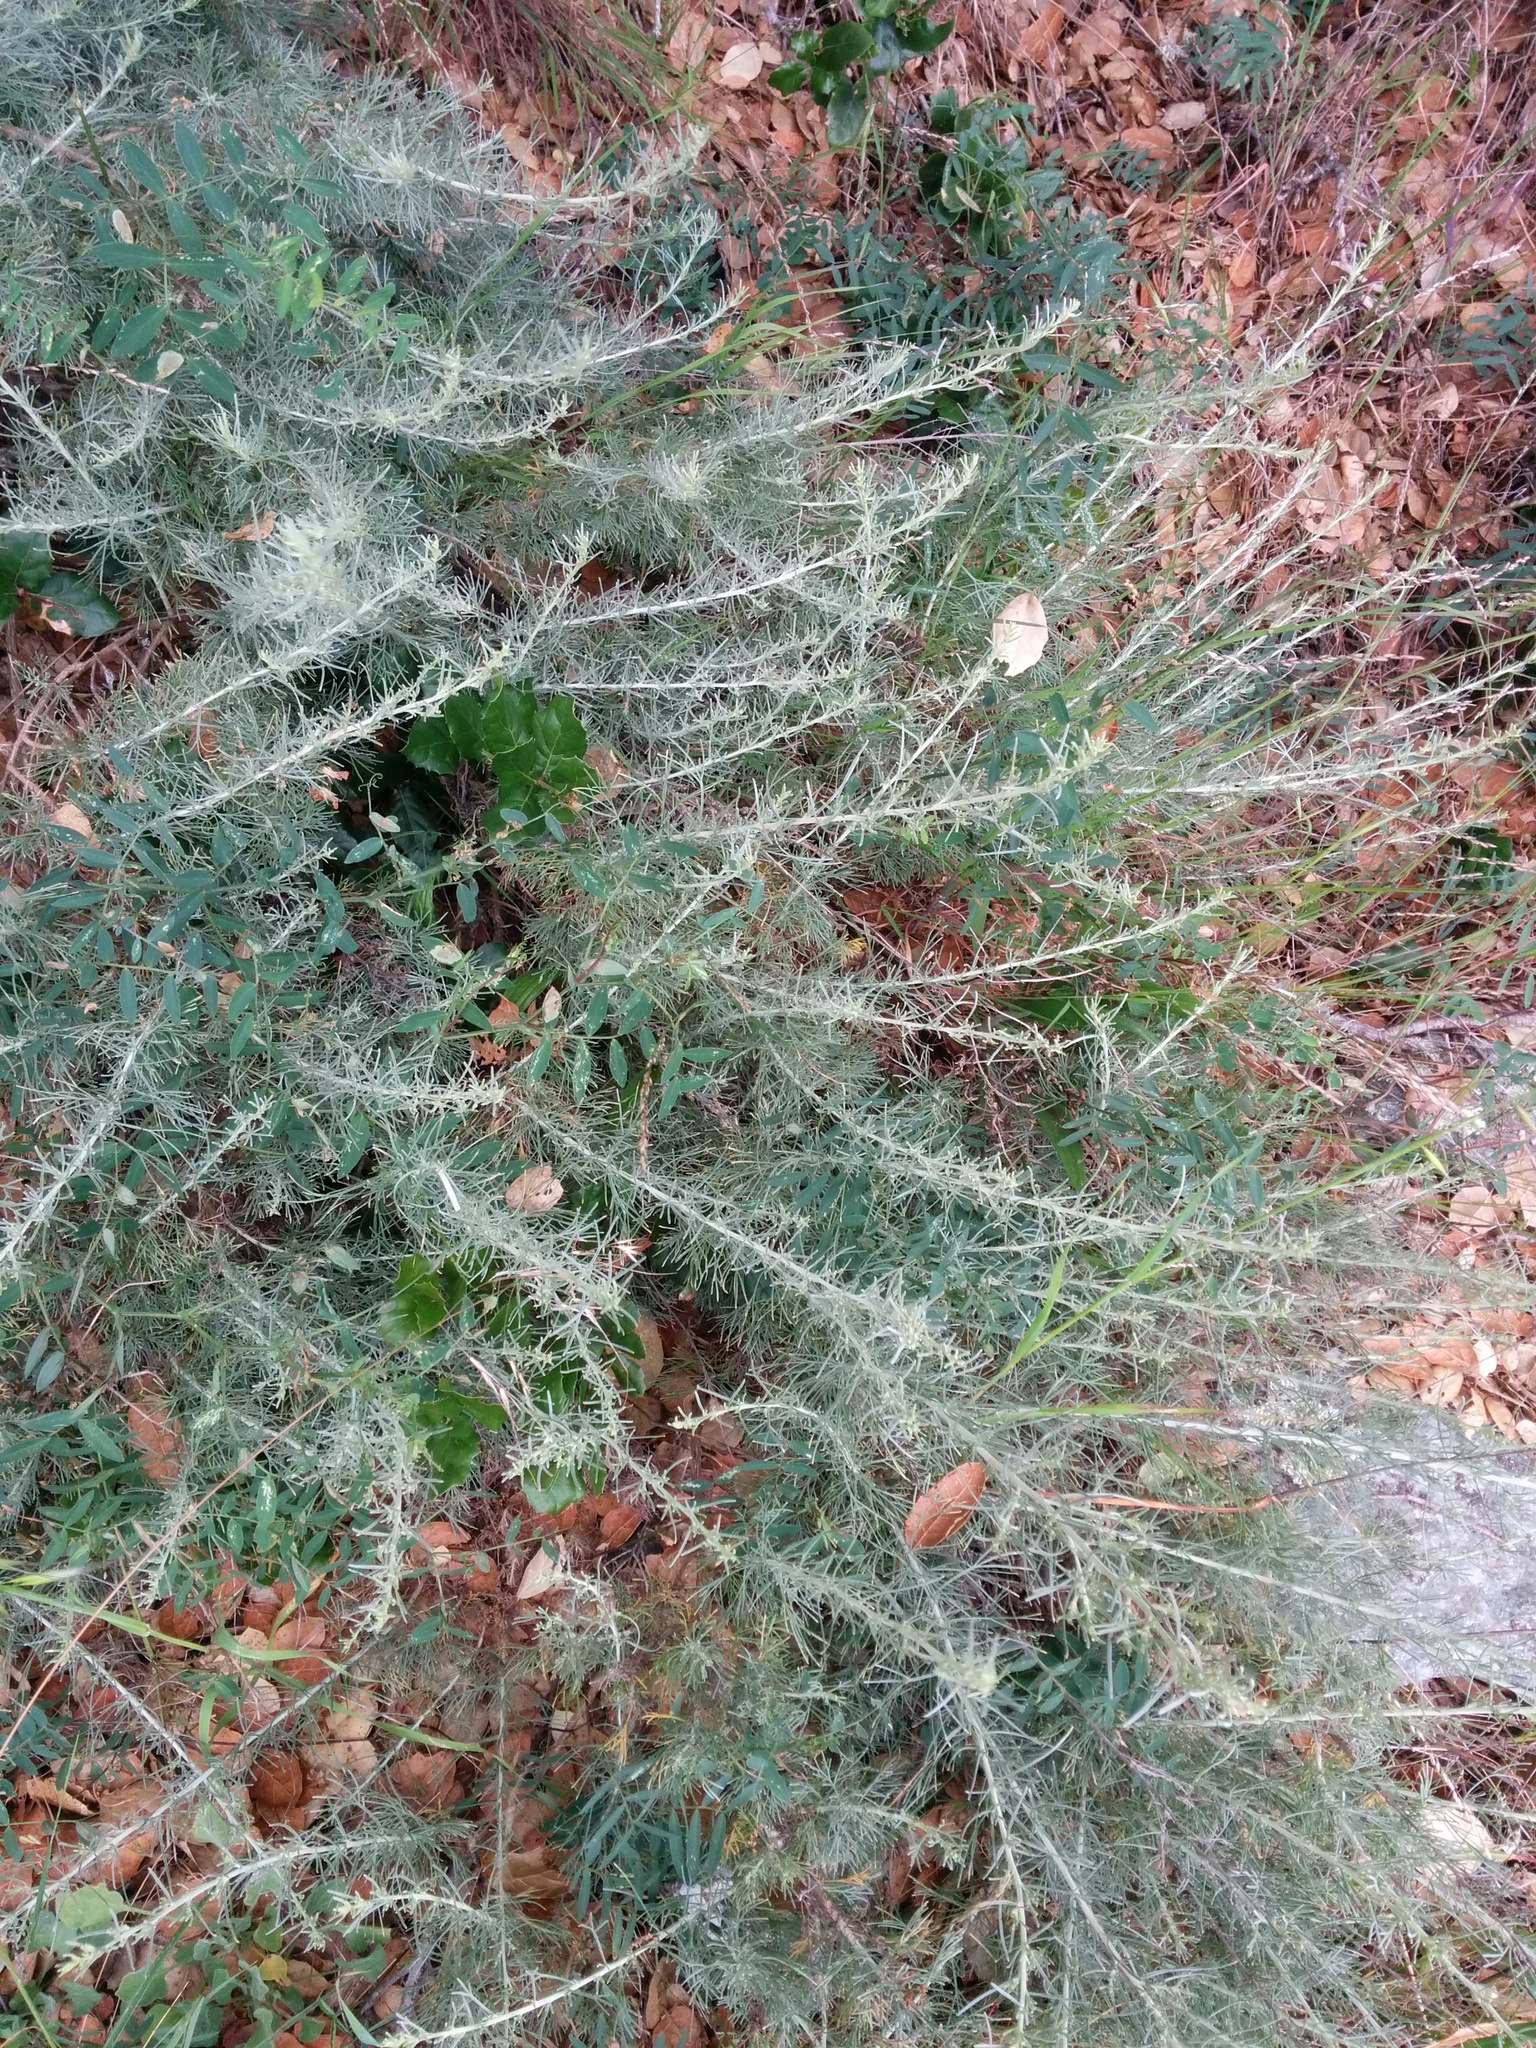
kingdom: Plantae
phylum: Tracheophyta
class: Magnoliopsida
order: Asterales
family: Asteraceae
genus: Artemisia
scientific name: Artemisia californica
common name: California sagebrush
